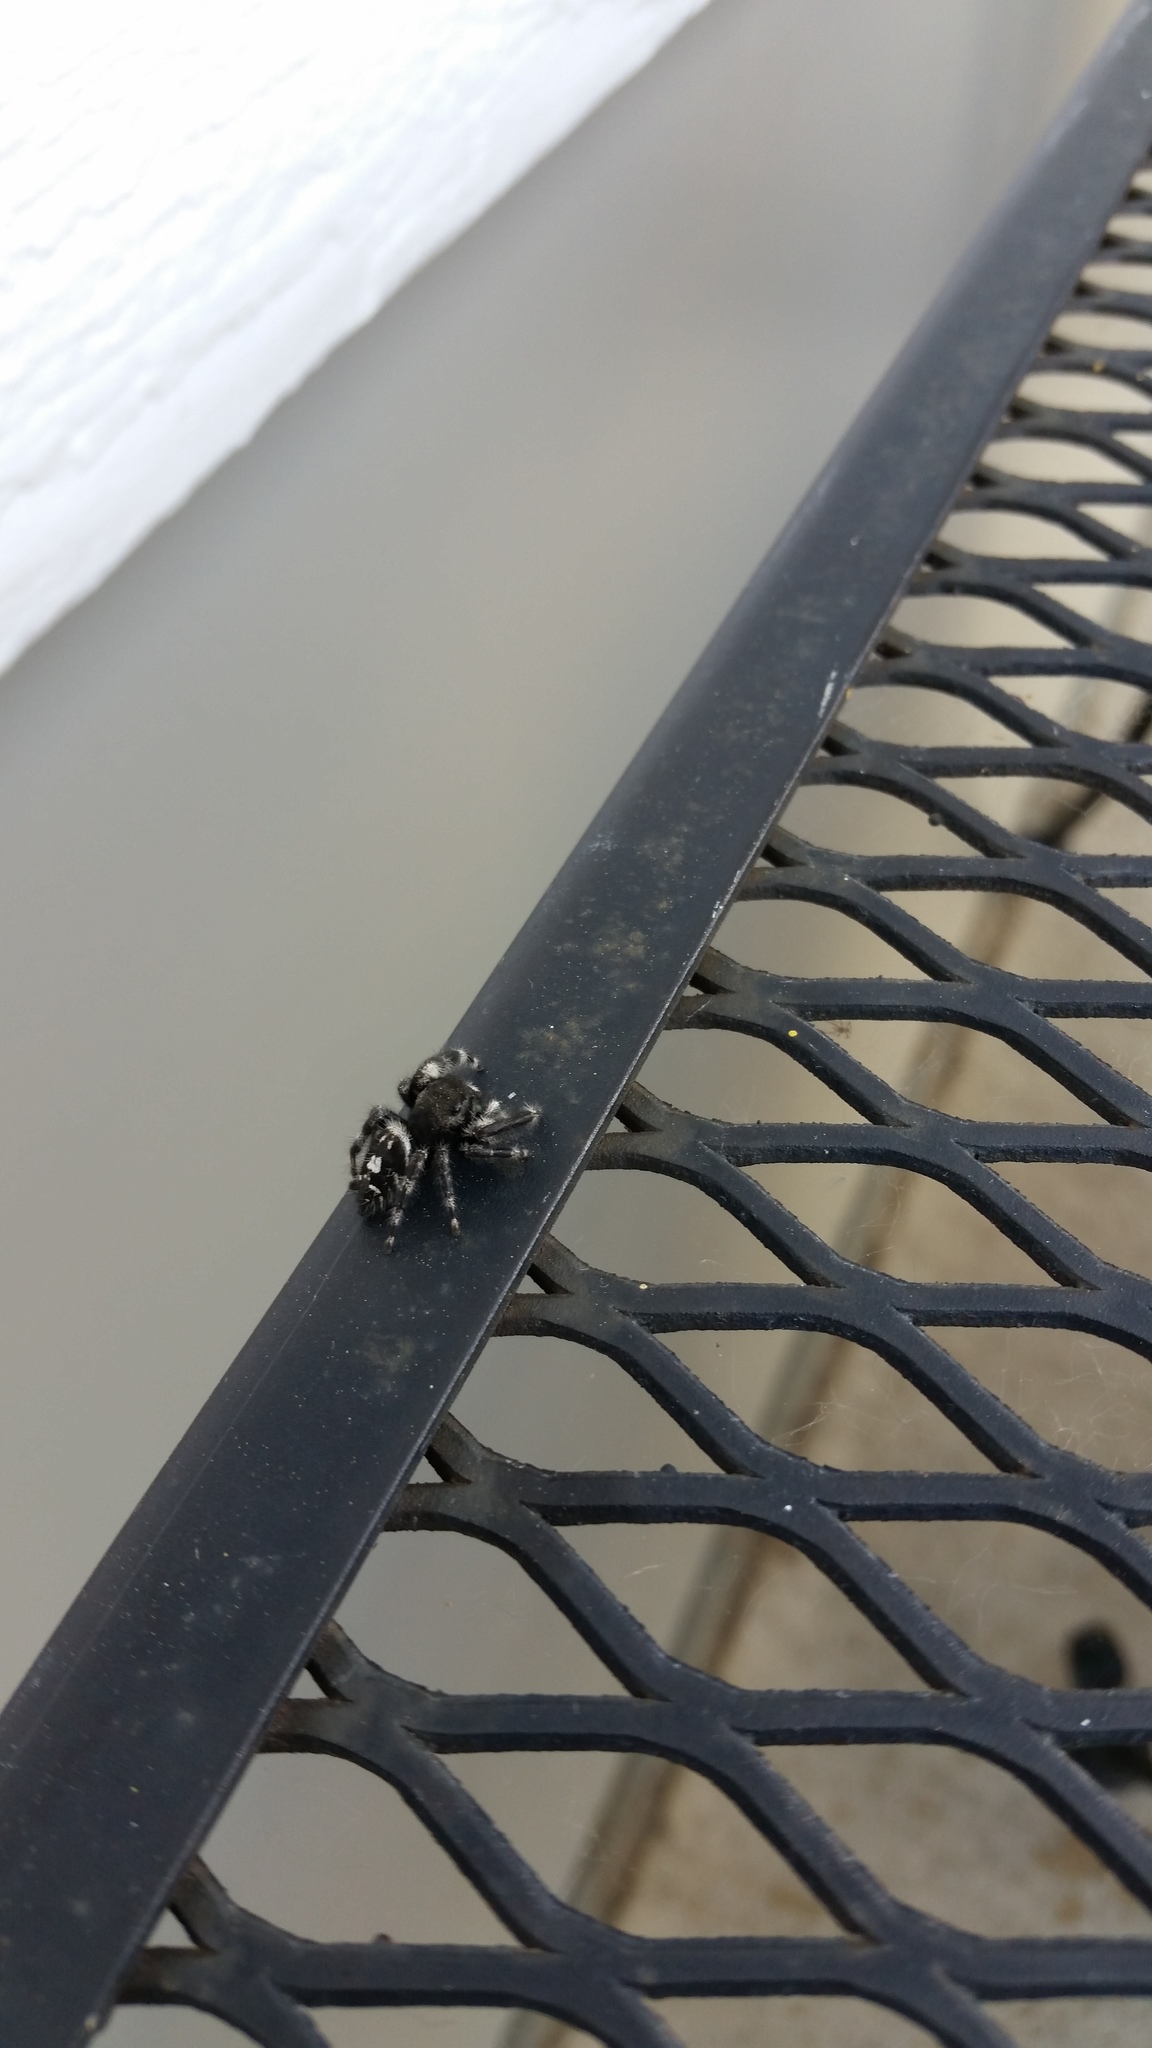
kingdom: Animalia
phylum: Arthropoda
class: Arachnida
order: Araneae
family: Salticidae
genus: Phidippus
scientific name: Phidippus audax
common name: Bold jumper
